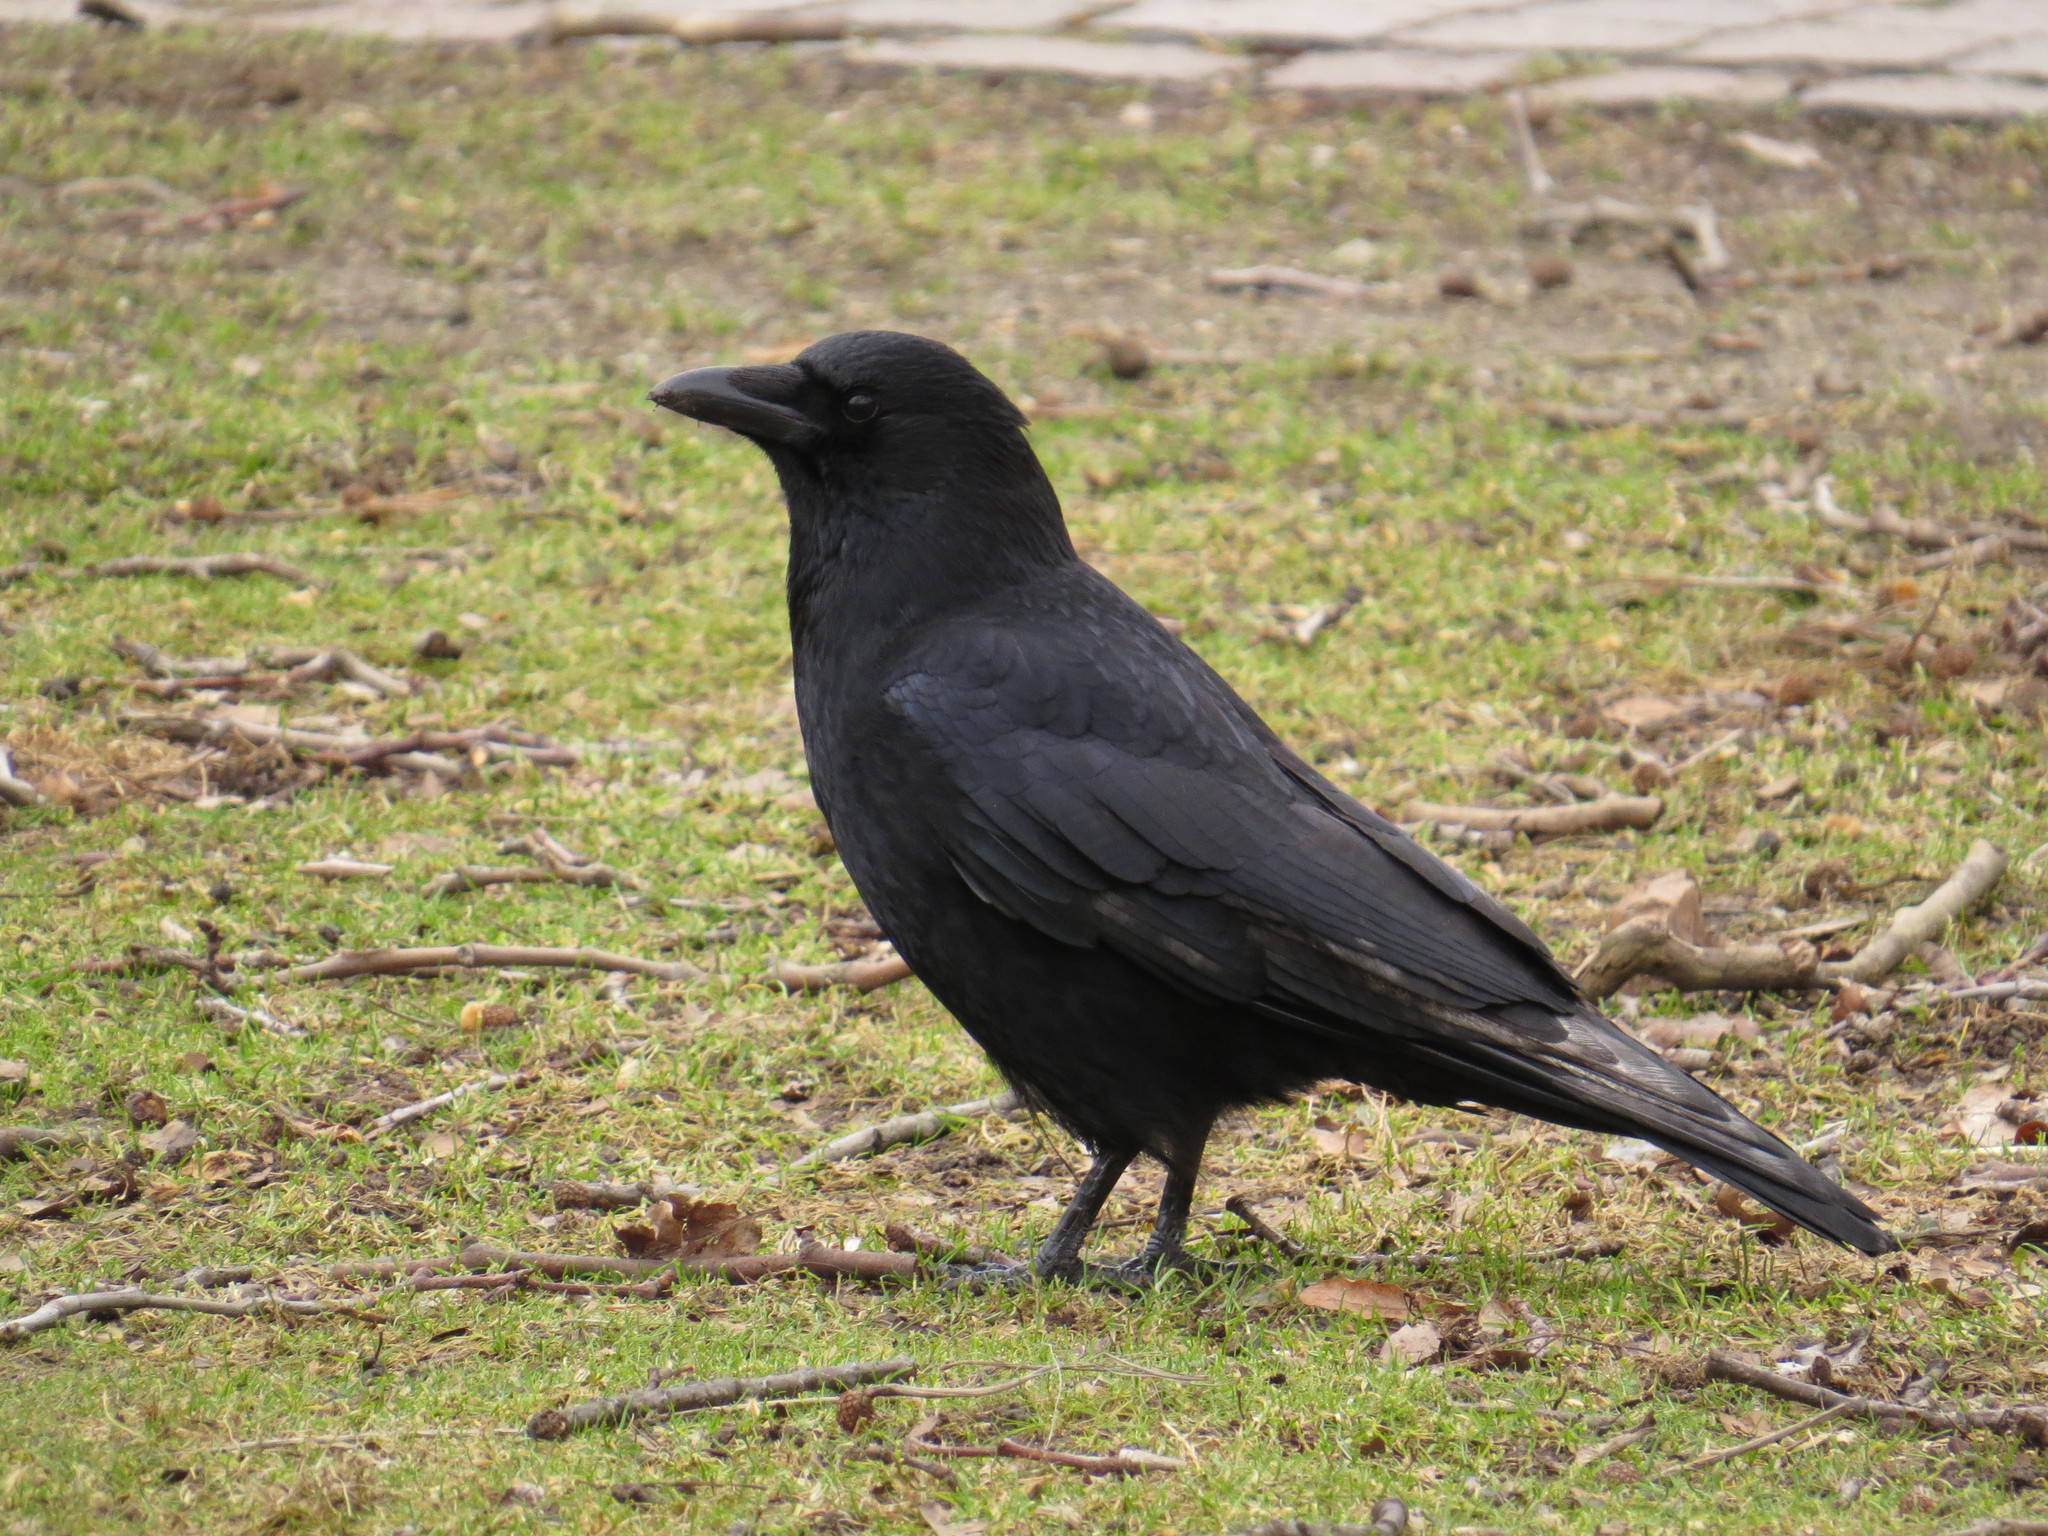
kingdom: Animalia
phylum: Chordata
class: Aves
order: Passeriformes
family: Corvidae
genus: Corvus
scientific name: Corvus corone
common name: Carrion crow
